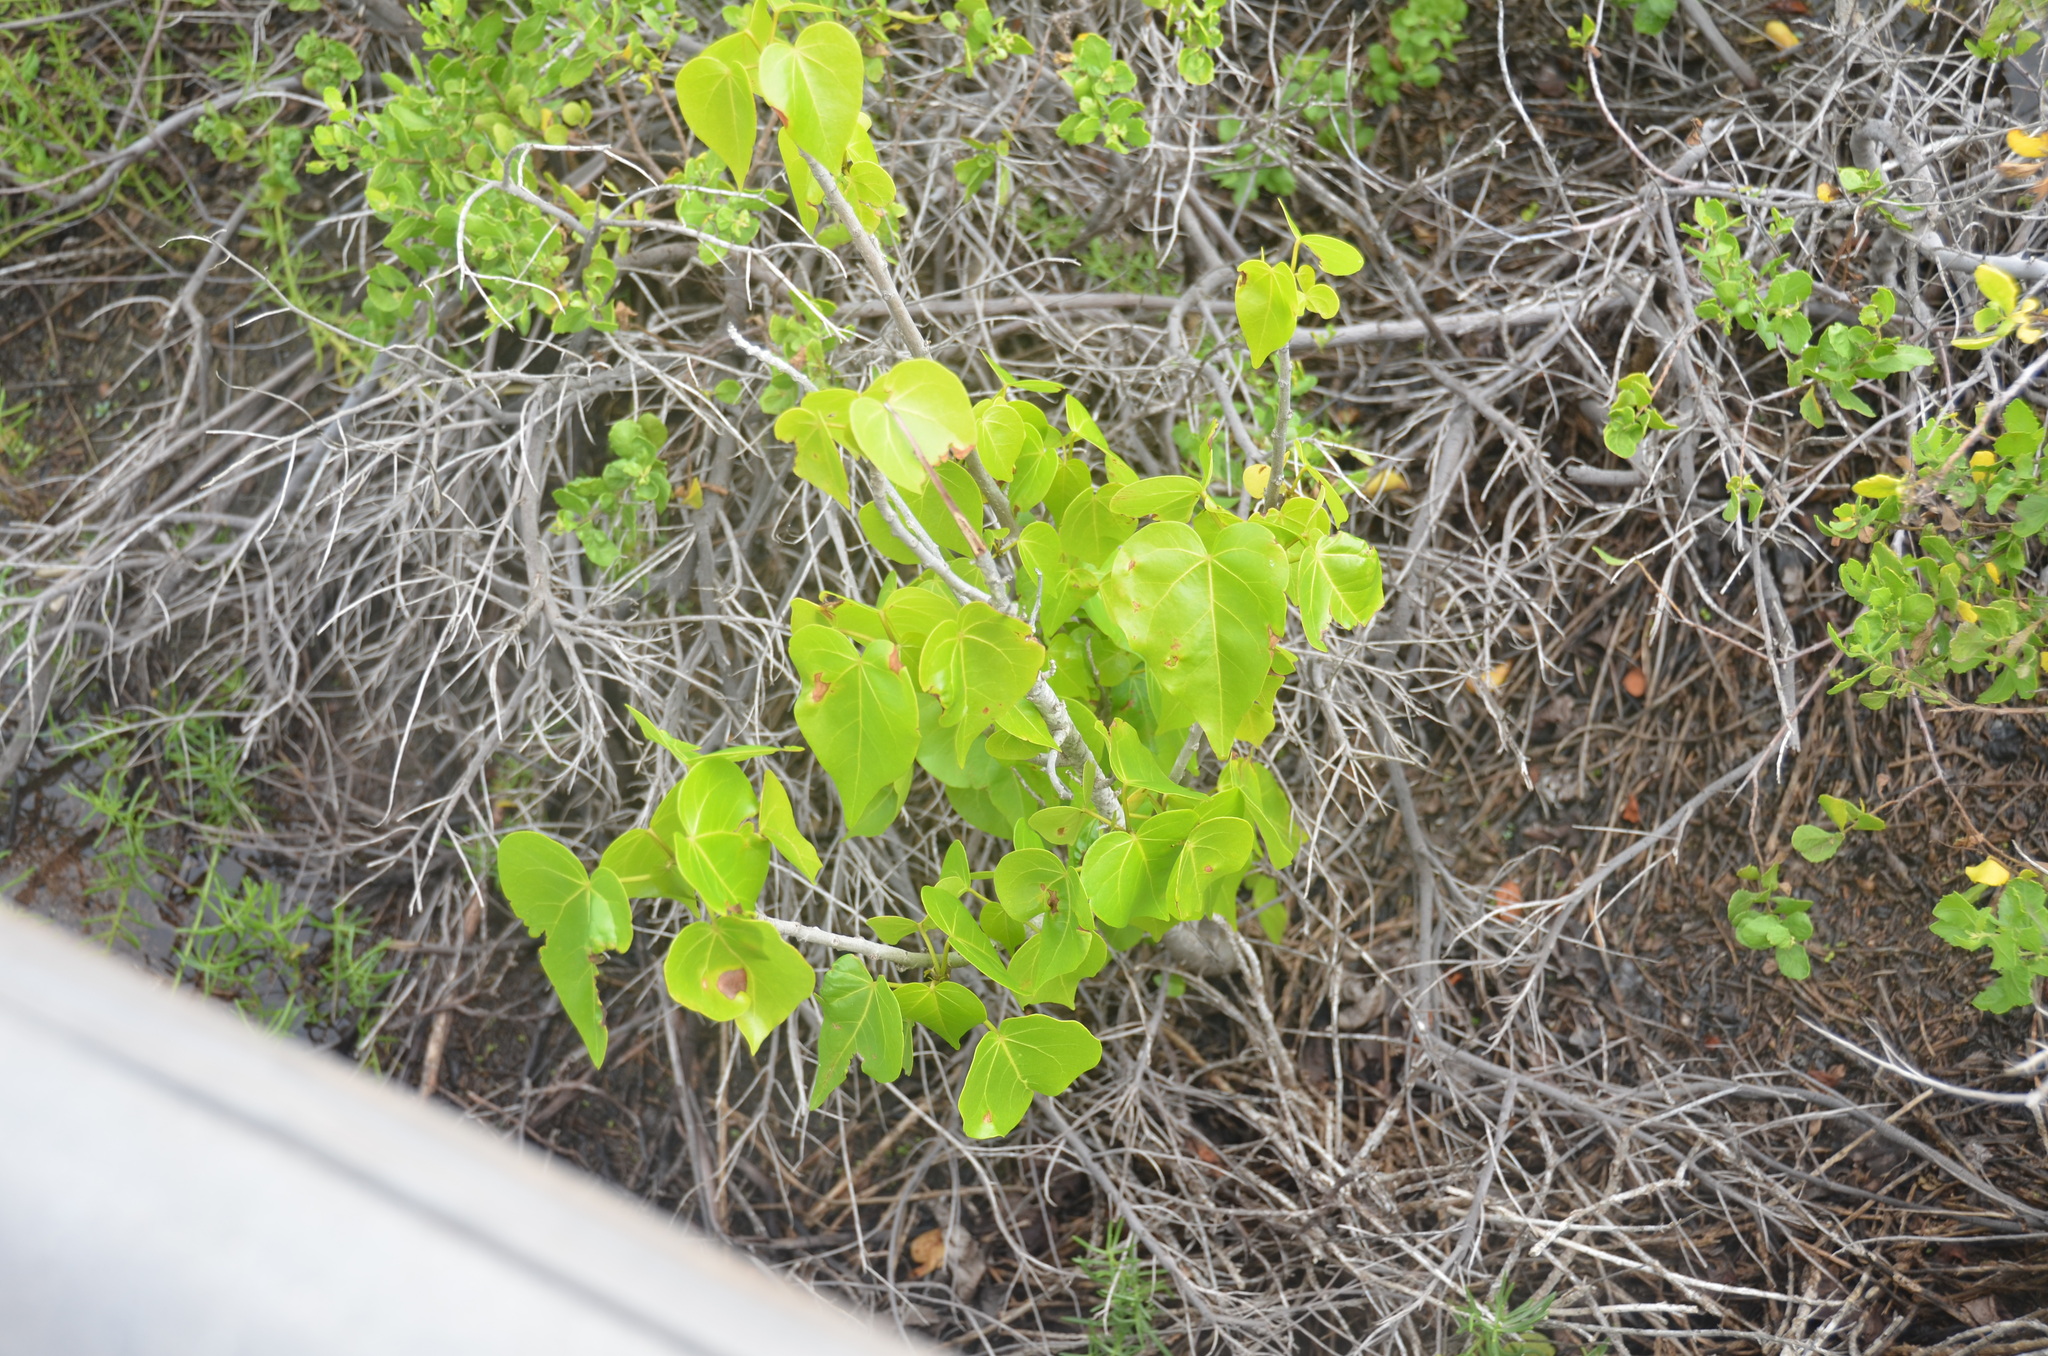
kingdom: Plantae
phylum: Tracheophyta
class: Magnoliopsida
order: Malvales
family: Malvaceae
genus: Thespesia
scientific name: Thespesia populnea
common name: Seaside mahoe
